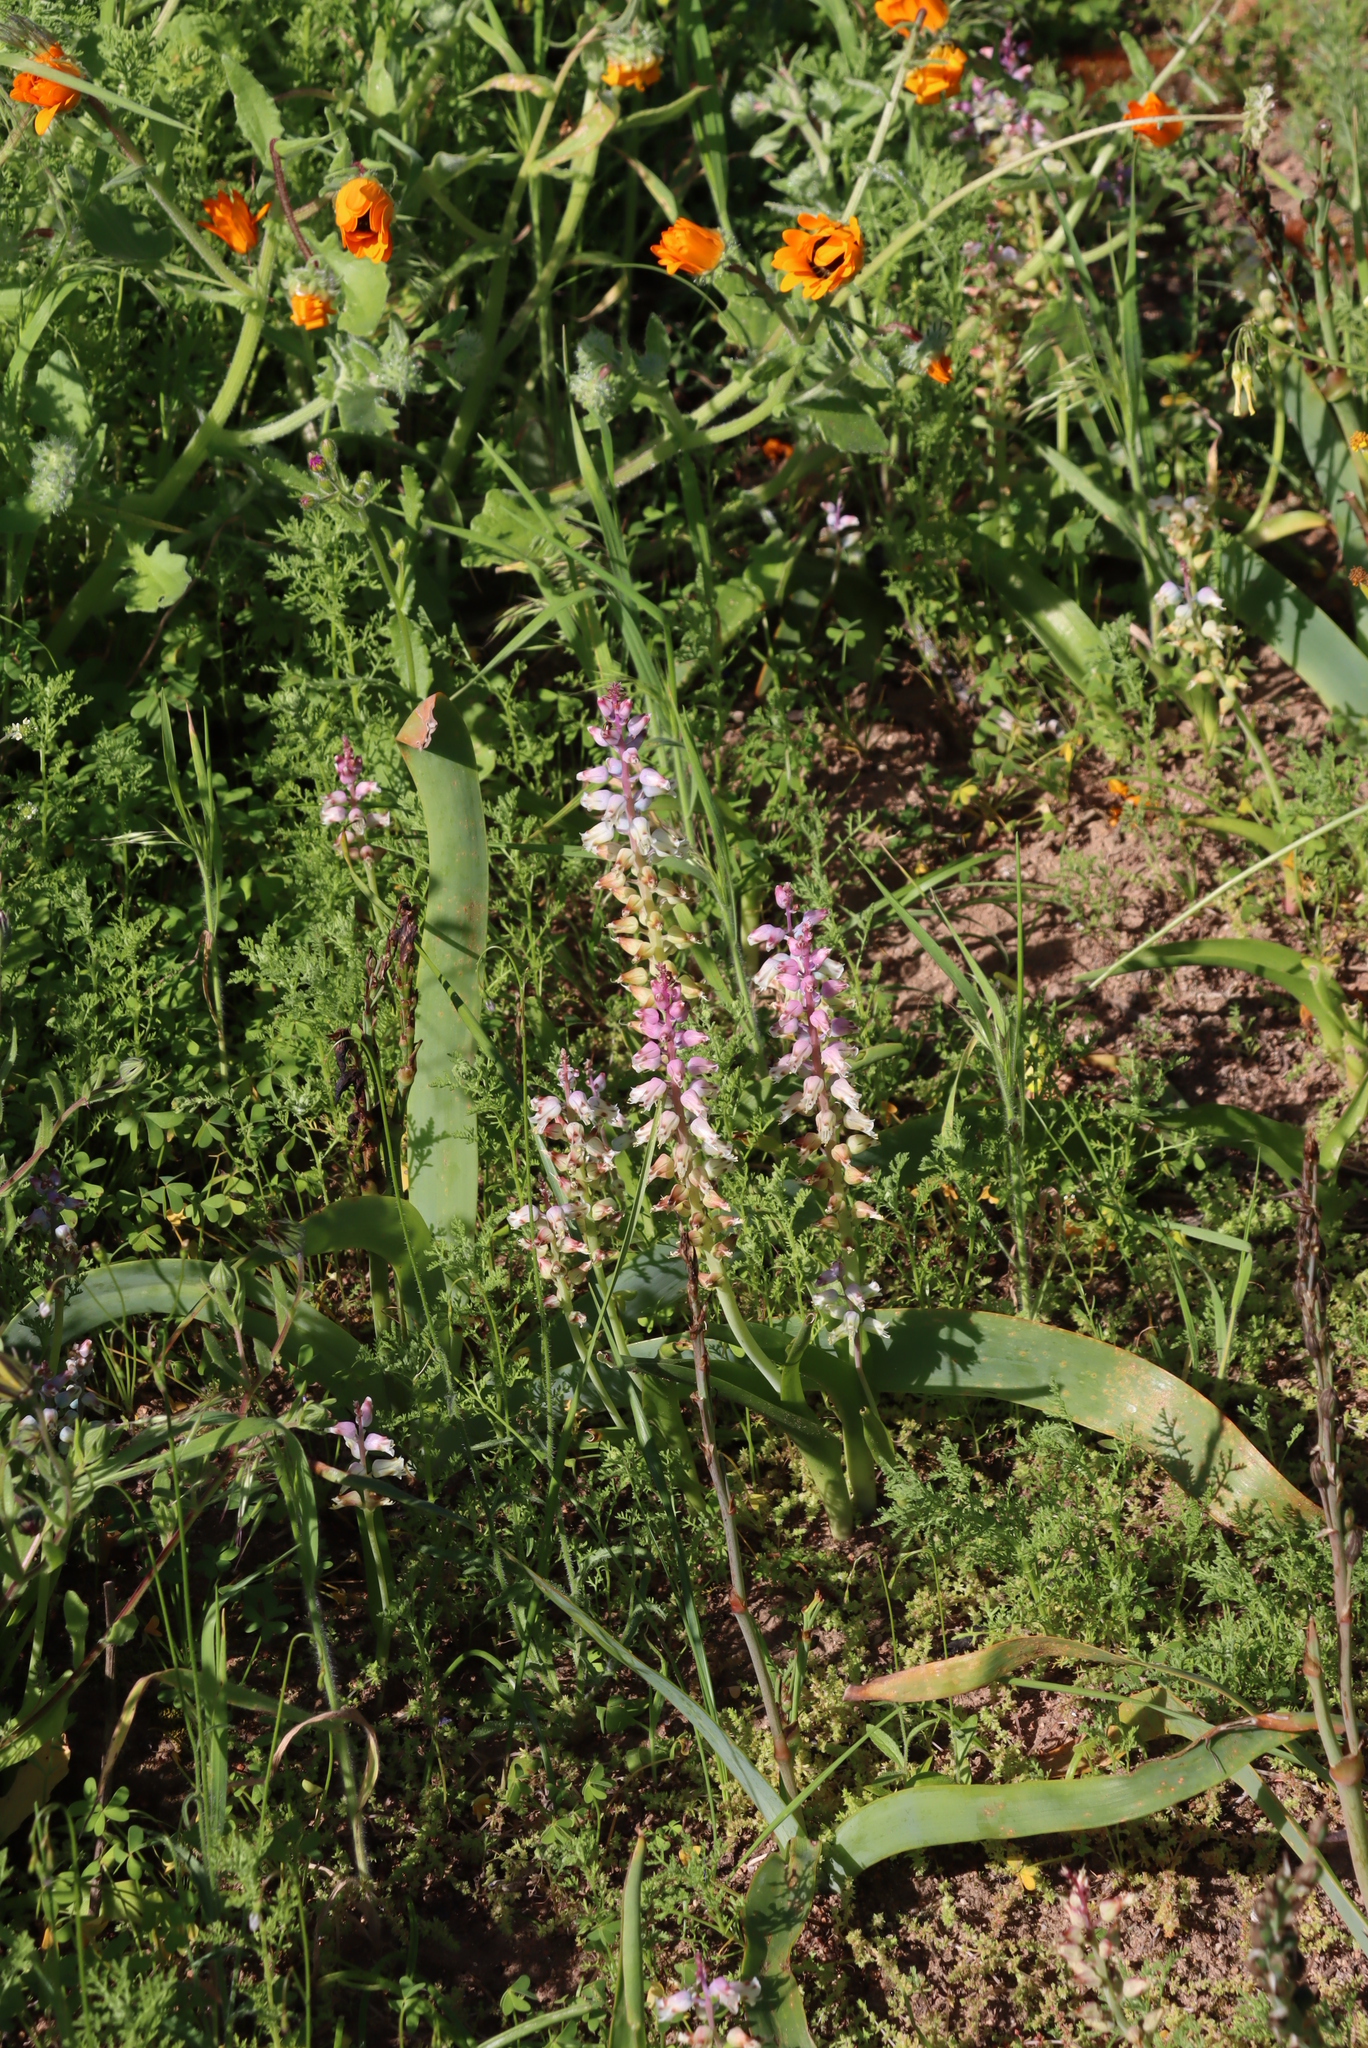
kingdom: Plantae
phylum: Tracheophyta
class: Liliopsida
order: Asparagales
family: Asparagaceae
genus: Lachenalia
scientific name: Lachenalia pallida
